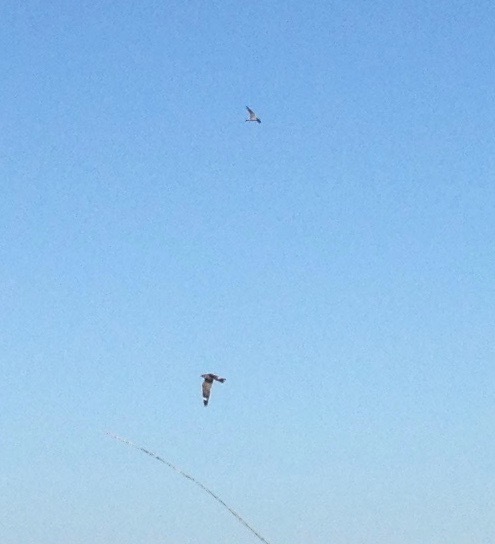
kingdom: Animalia
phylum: Chordata
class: Aves
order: Caprimulgiformes
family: Caprimulgidae
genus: Chordeiles
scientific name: Chordeiles acutipennis
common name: Lesser nighthawk
